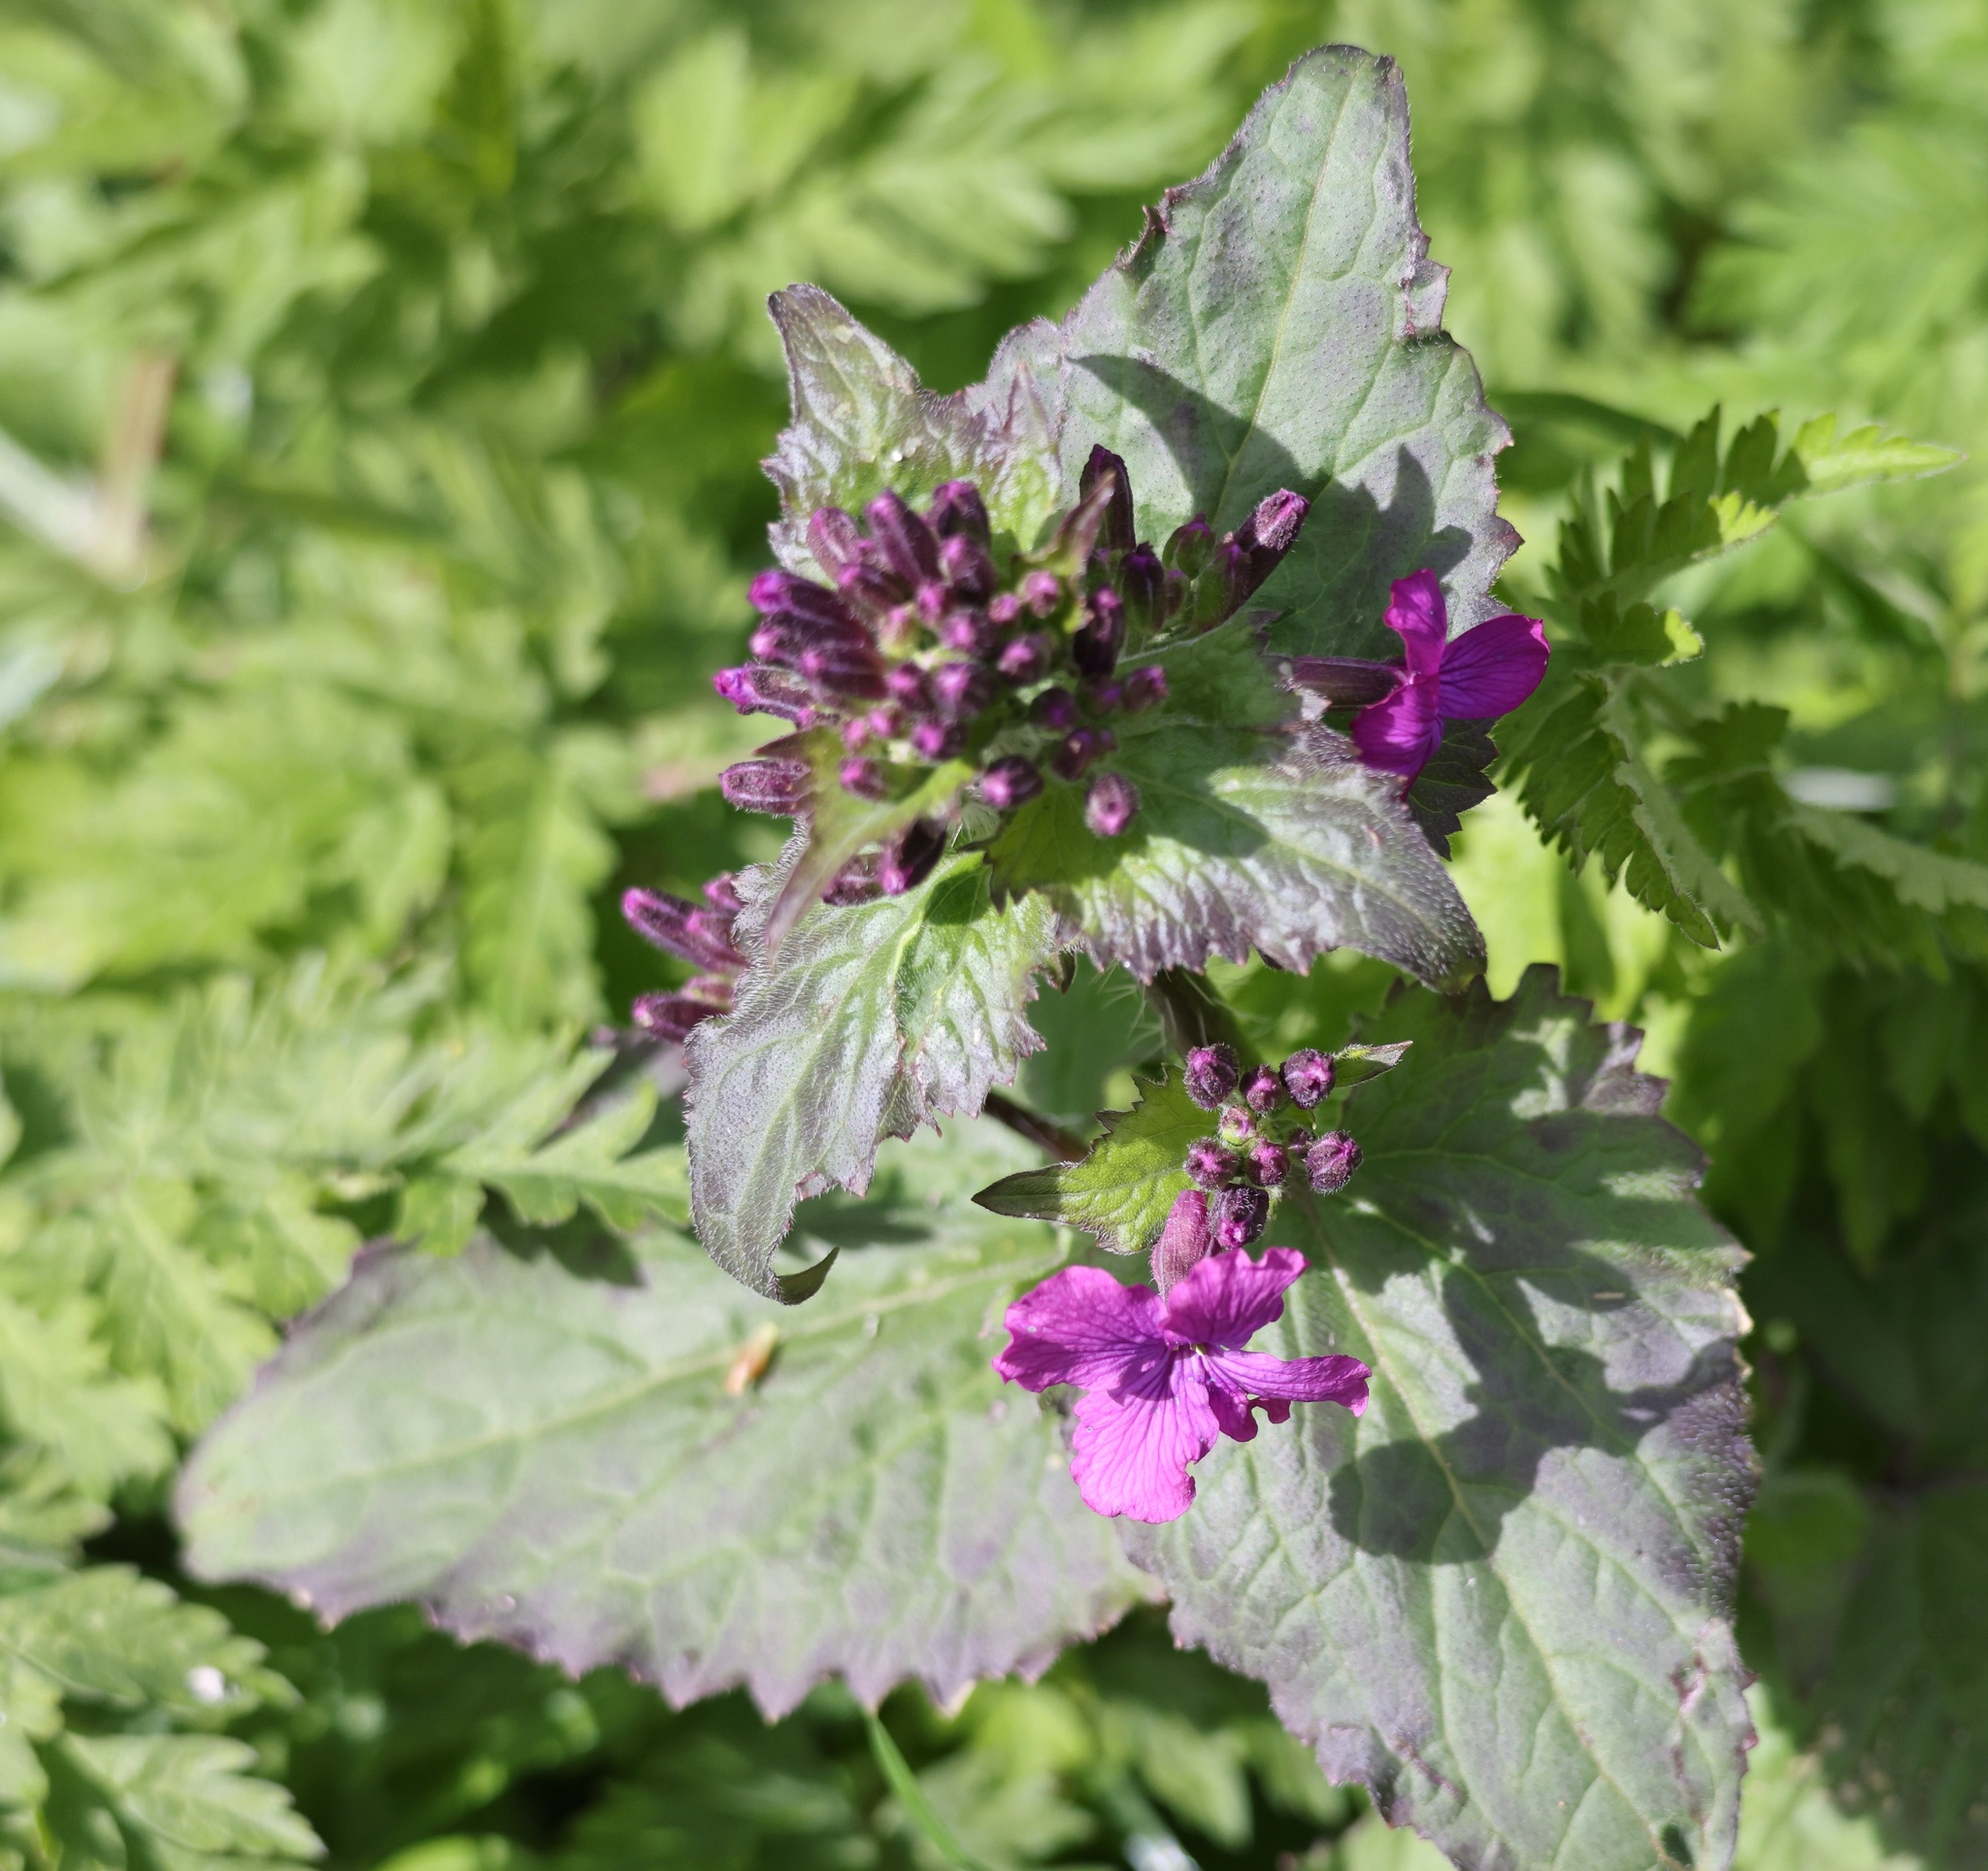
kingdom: Plantae
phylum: Tracheophyta
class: Magnoliopsida
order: Brassicales
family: Brassicaceae
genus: Lunaria
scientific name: Lunaria annua
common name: Honesty
